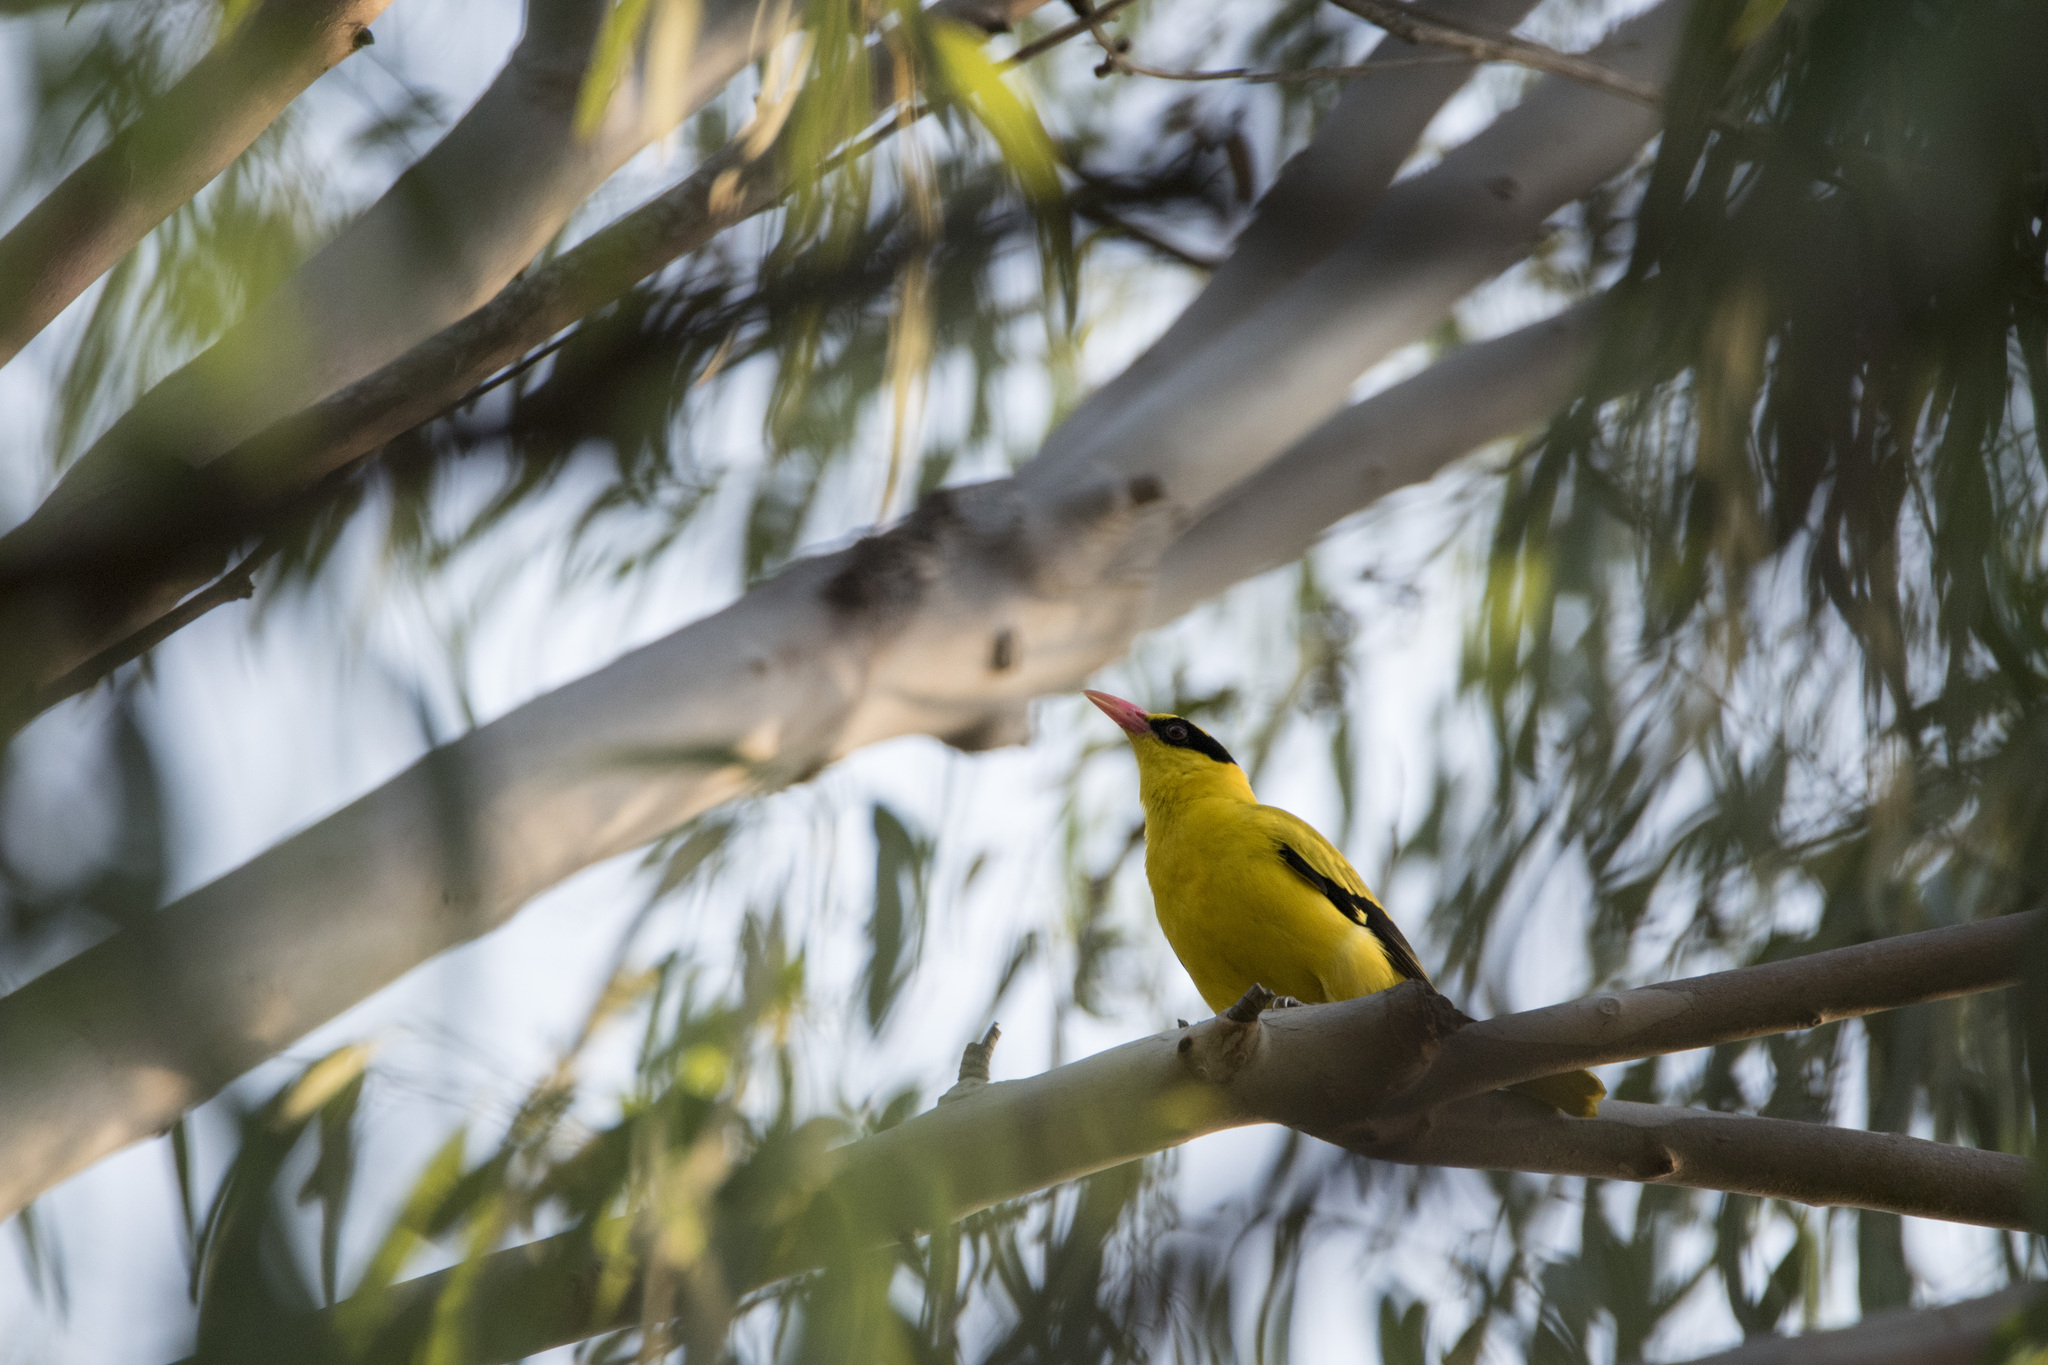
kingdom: Animalia
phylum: Chordata
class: Aves
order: Passeriformes
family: Oriolidae
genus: Oriolus
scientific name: Oriolus chinensis
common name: Black-naped oriole
